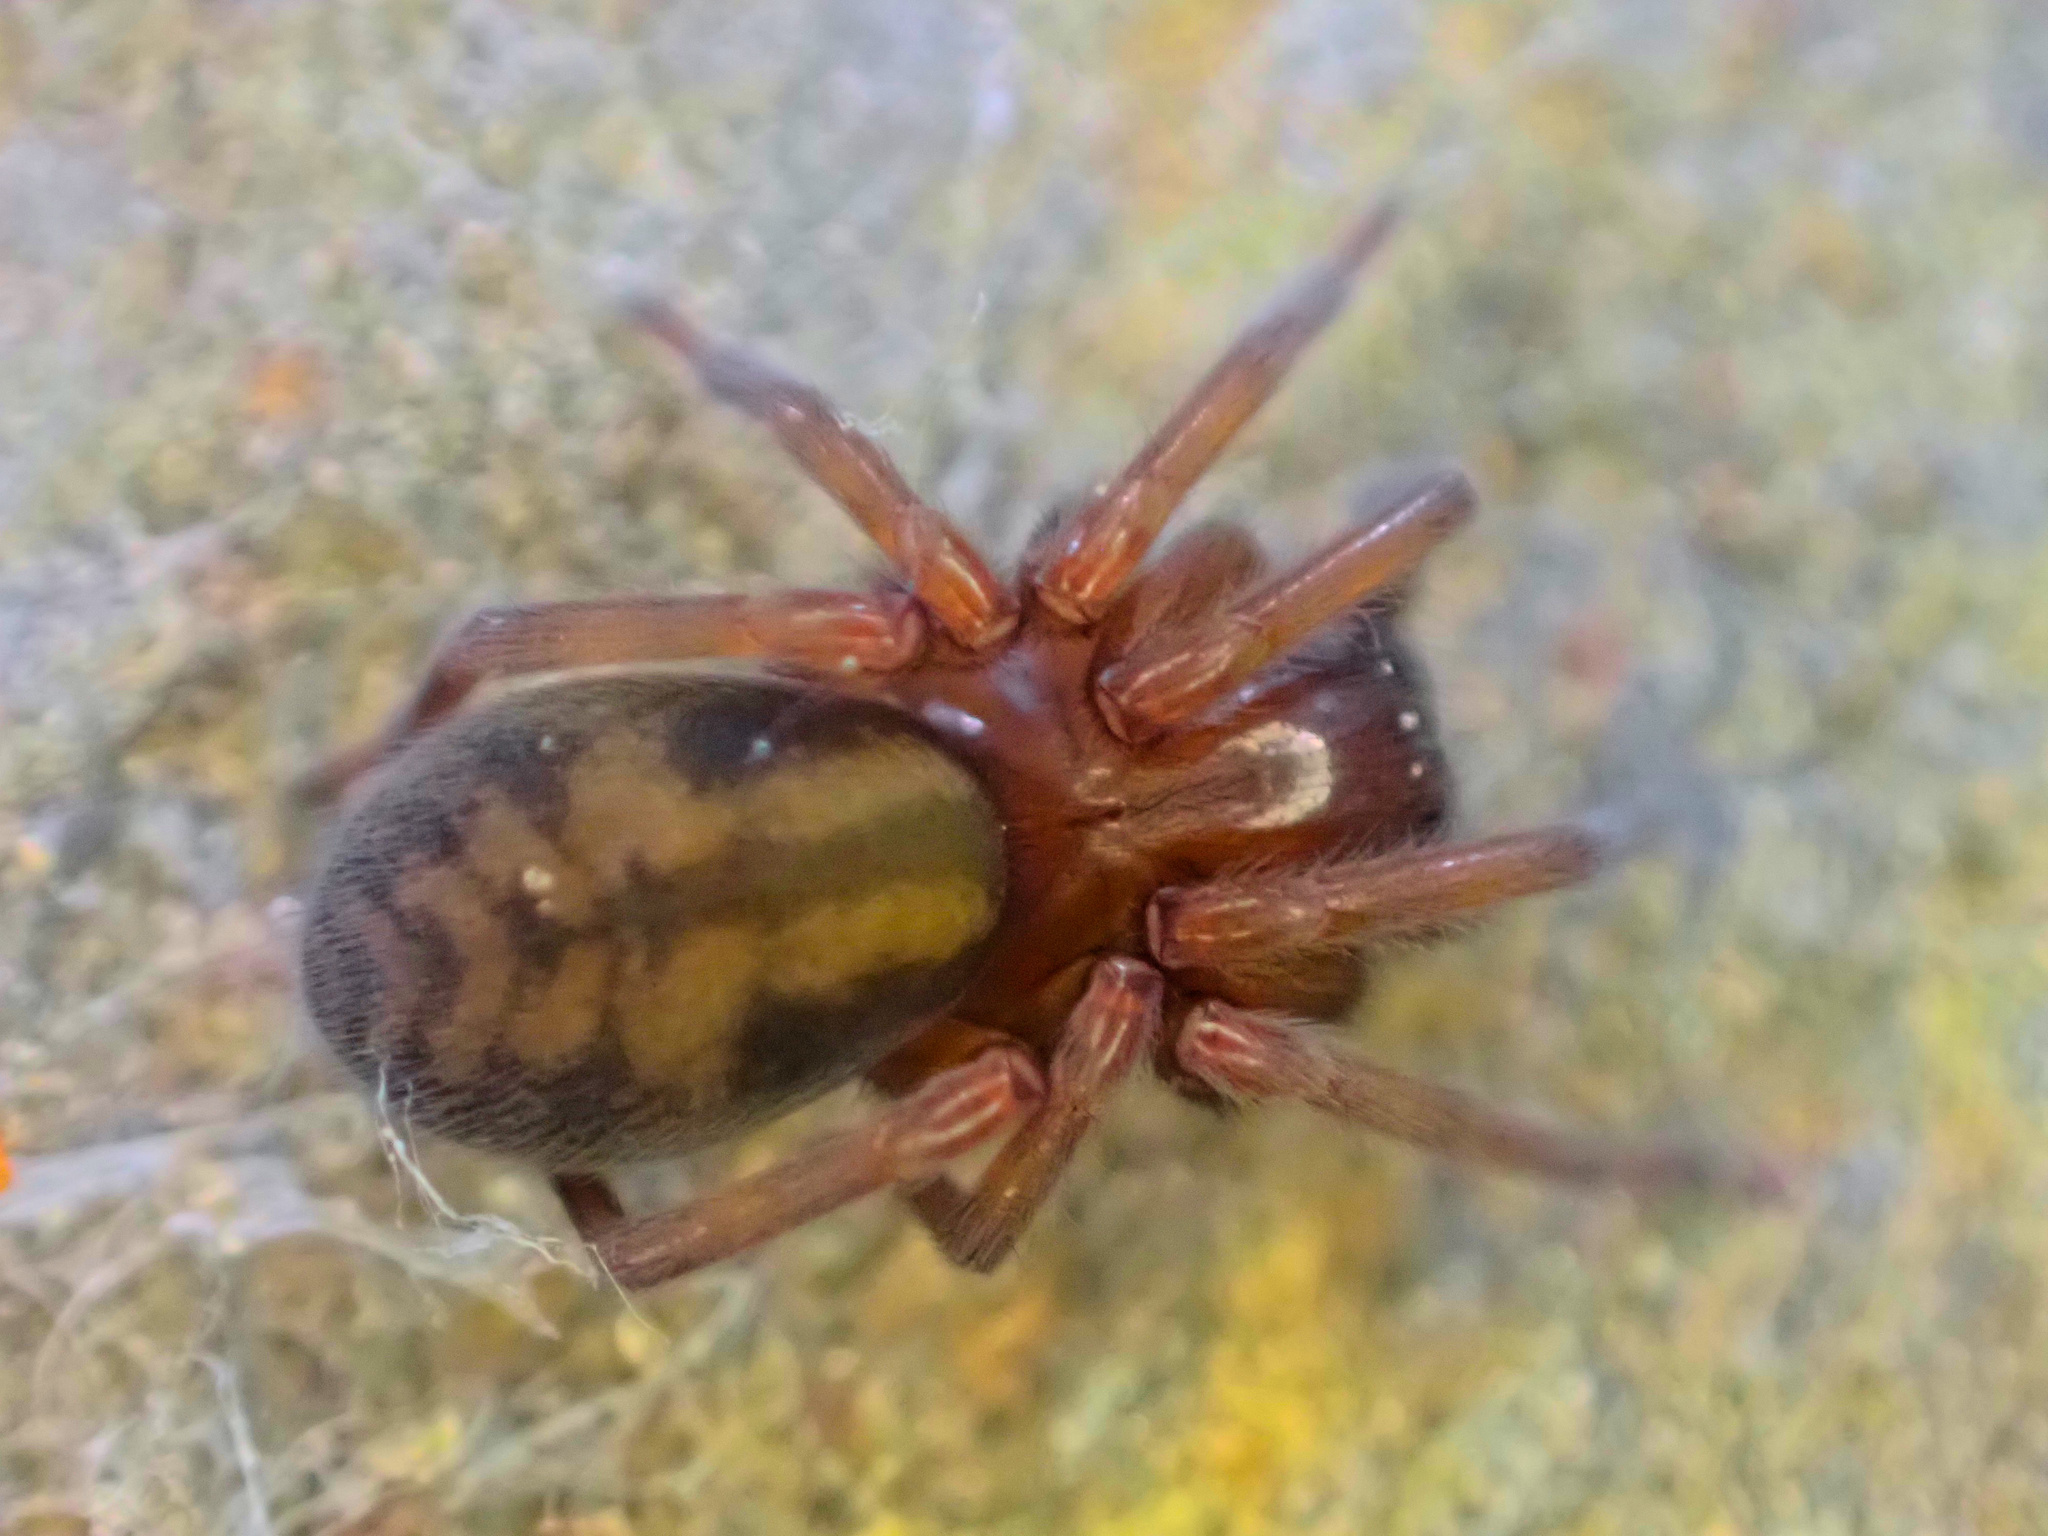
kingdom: Animalia
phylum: Arthropoda
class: Arachnida
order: Araneae
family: Amaurobiidae
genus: Callobius
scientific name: Callobius bennetti
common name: Bennett's laceweaver
